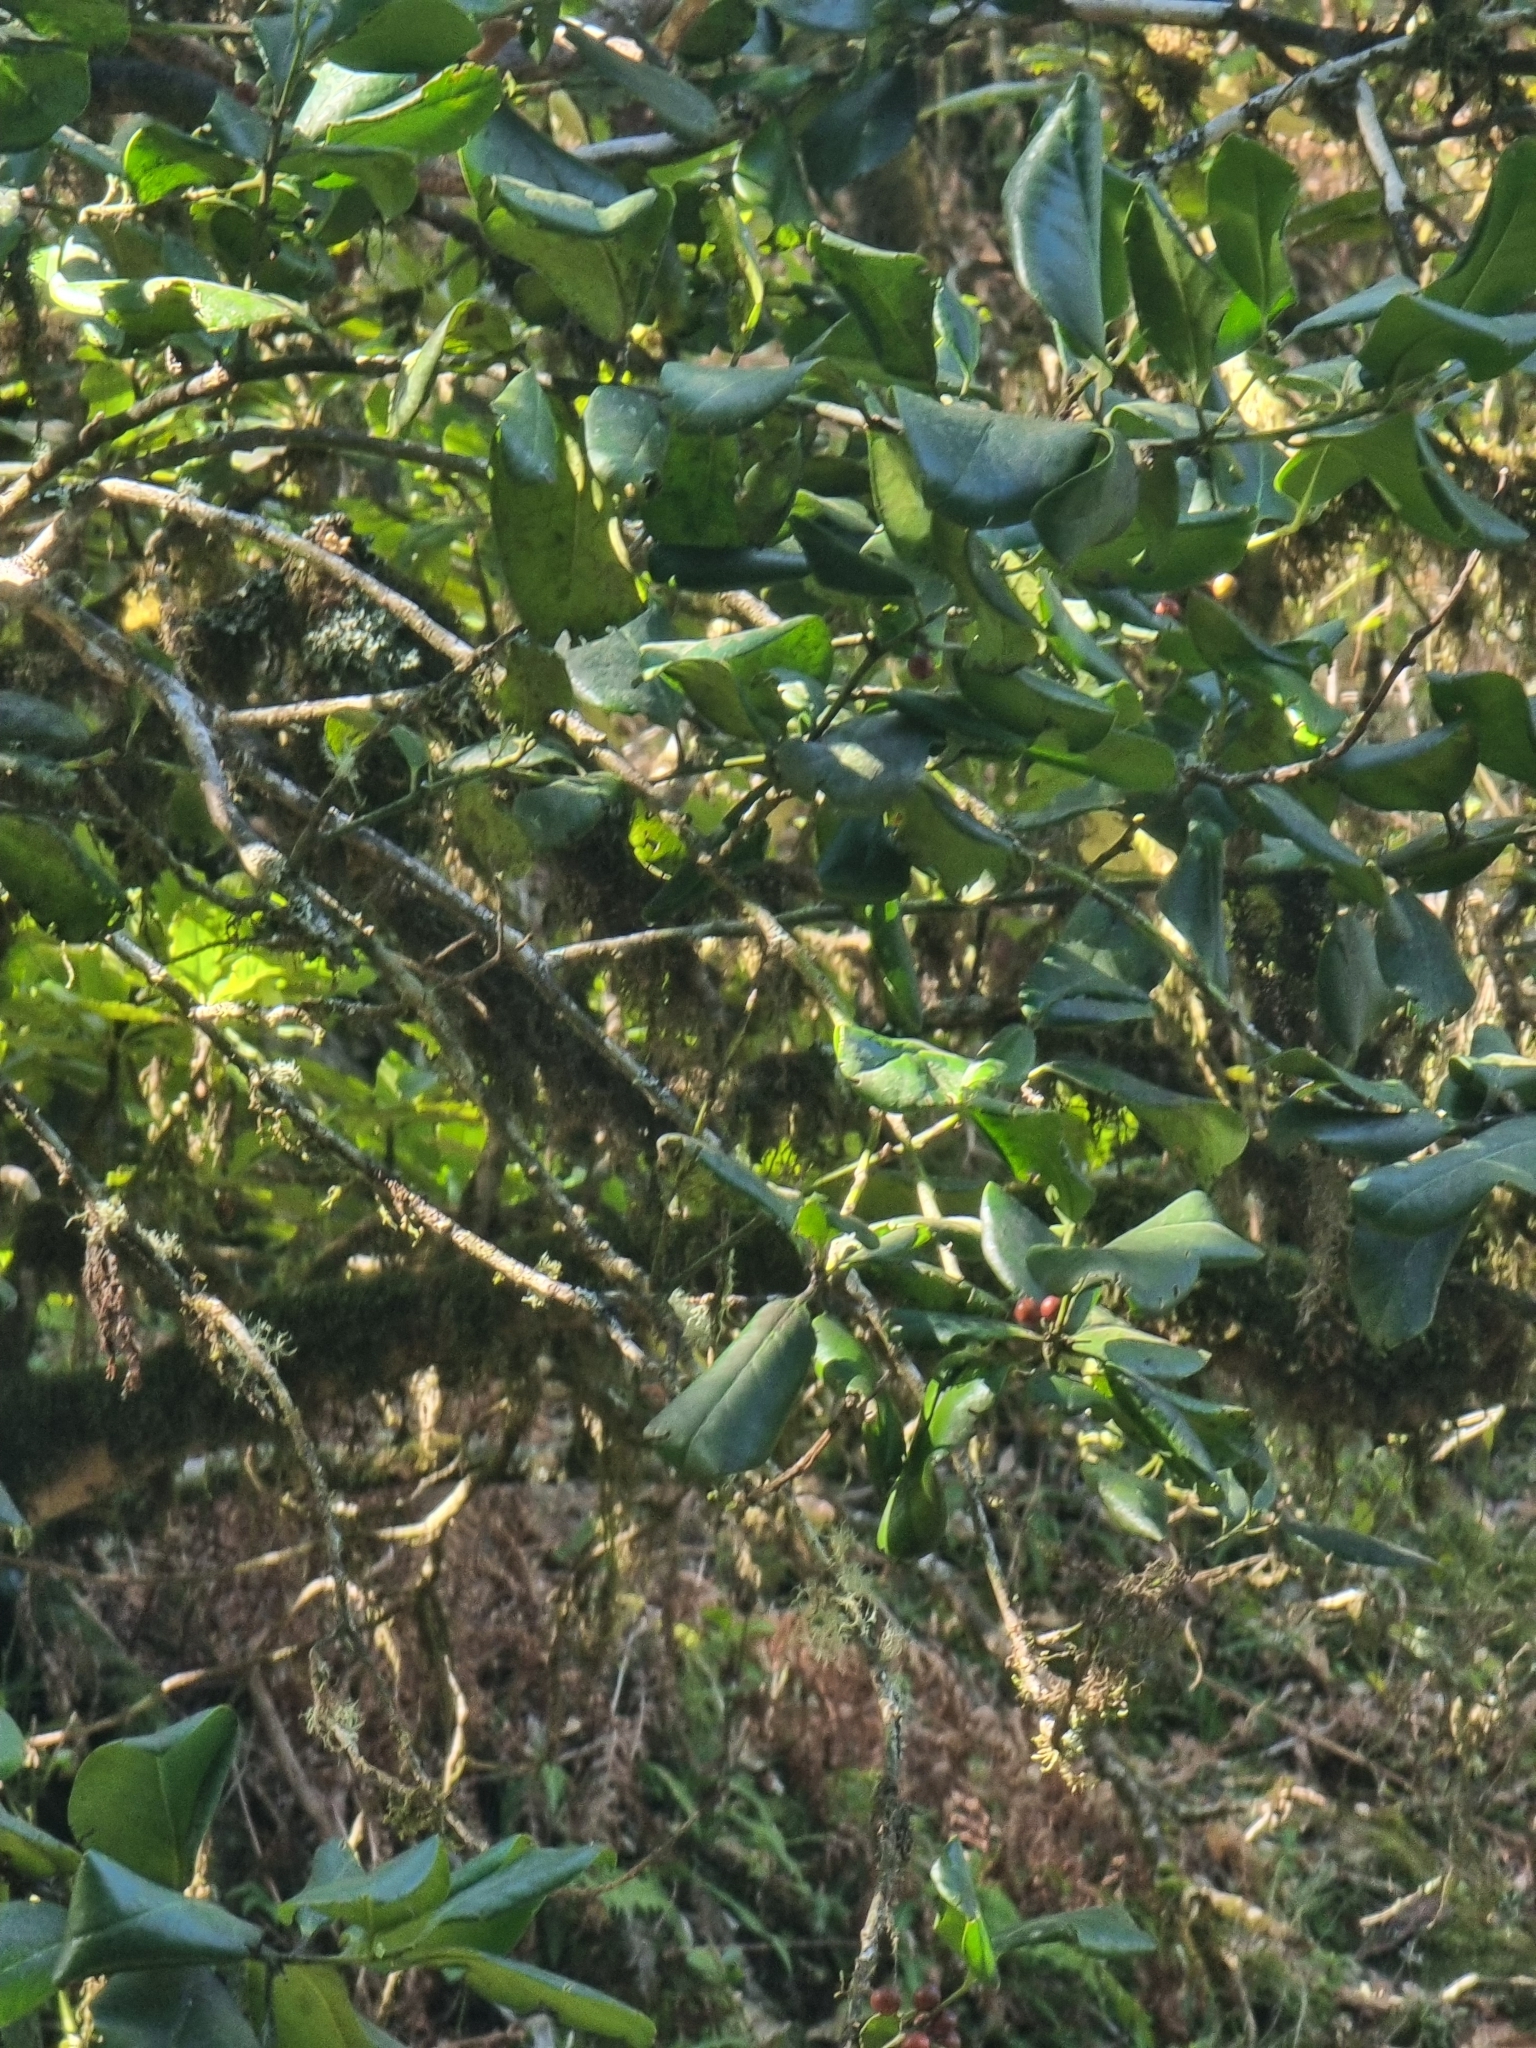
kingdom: Plantae
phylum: Tracheophyta
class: Magnoliopsida
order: Aquifoliales
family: Aquifoliaceae
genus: Ilex
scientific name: Ilex perado
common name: Madeira holly
